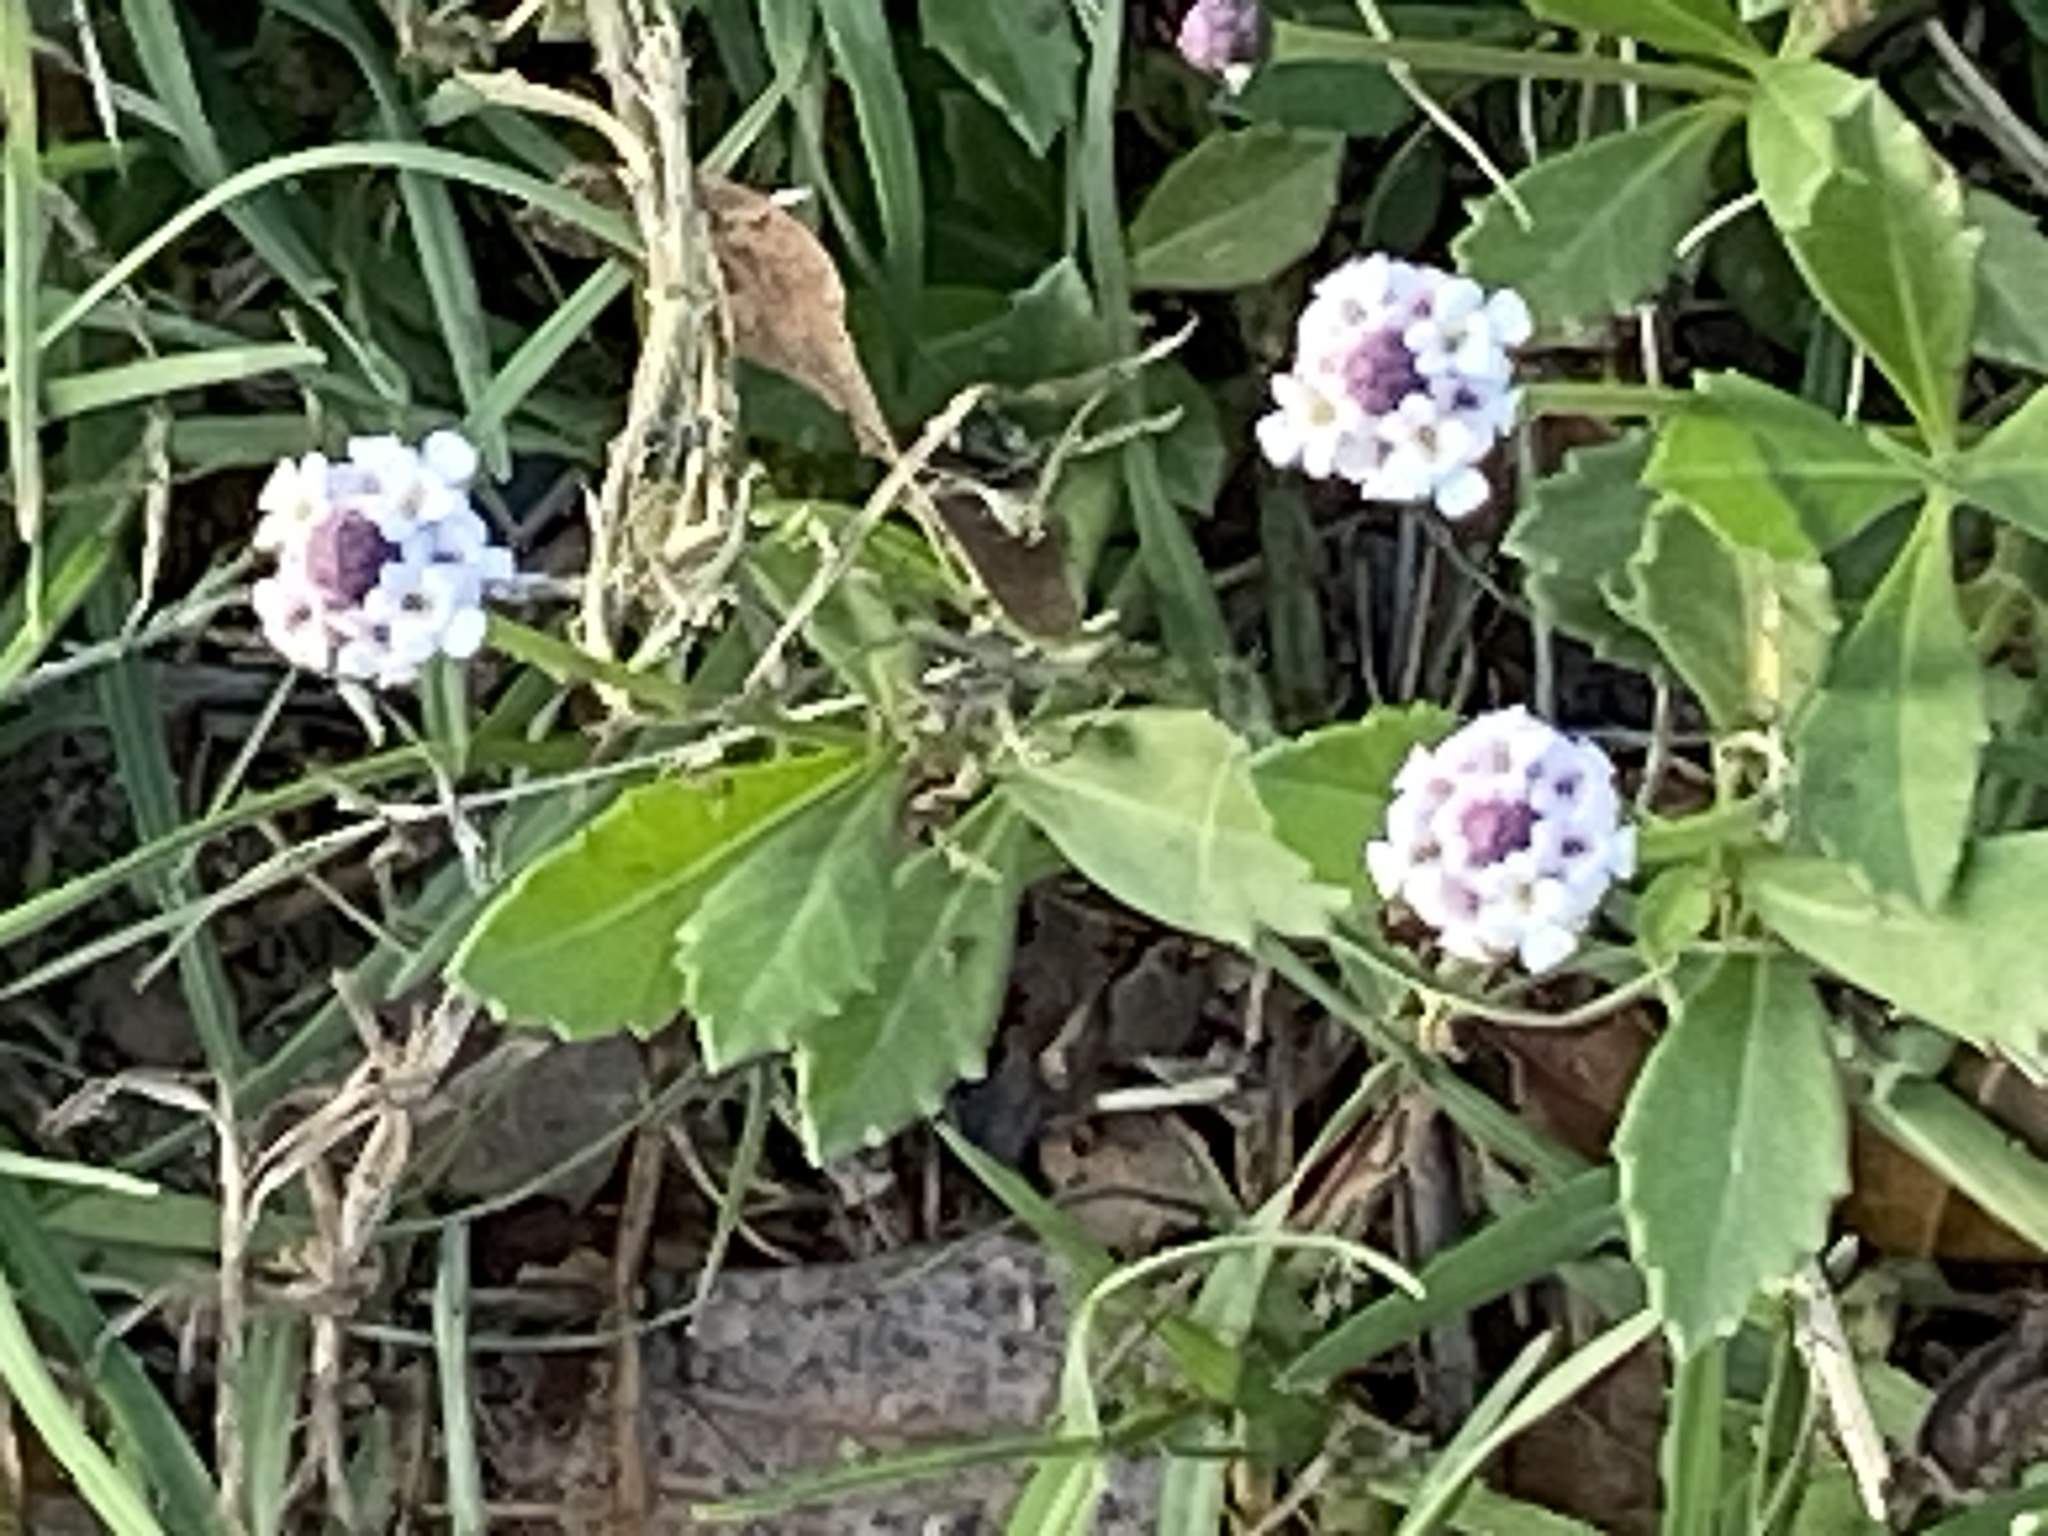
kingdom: Plantae
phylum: Tracheophyta
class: Magnoliopsida
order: Lamiales
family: Verbenaceae
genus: Phyla
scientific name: Phyla nodiflora
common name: Frogfruit
